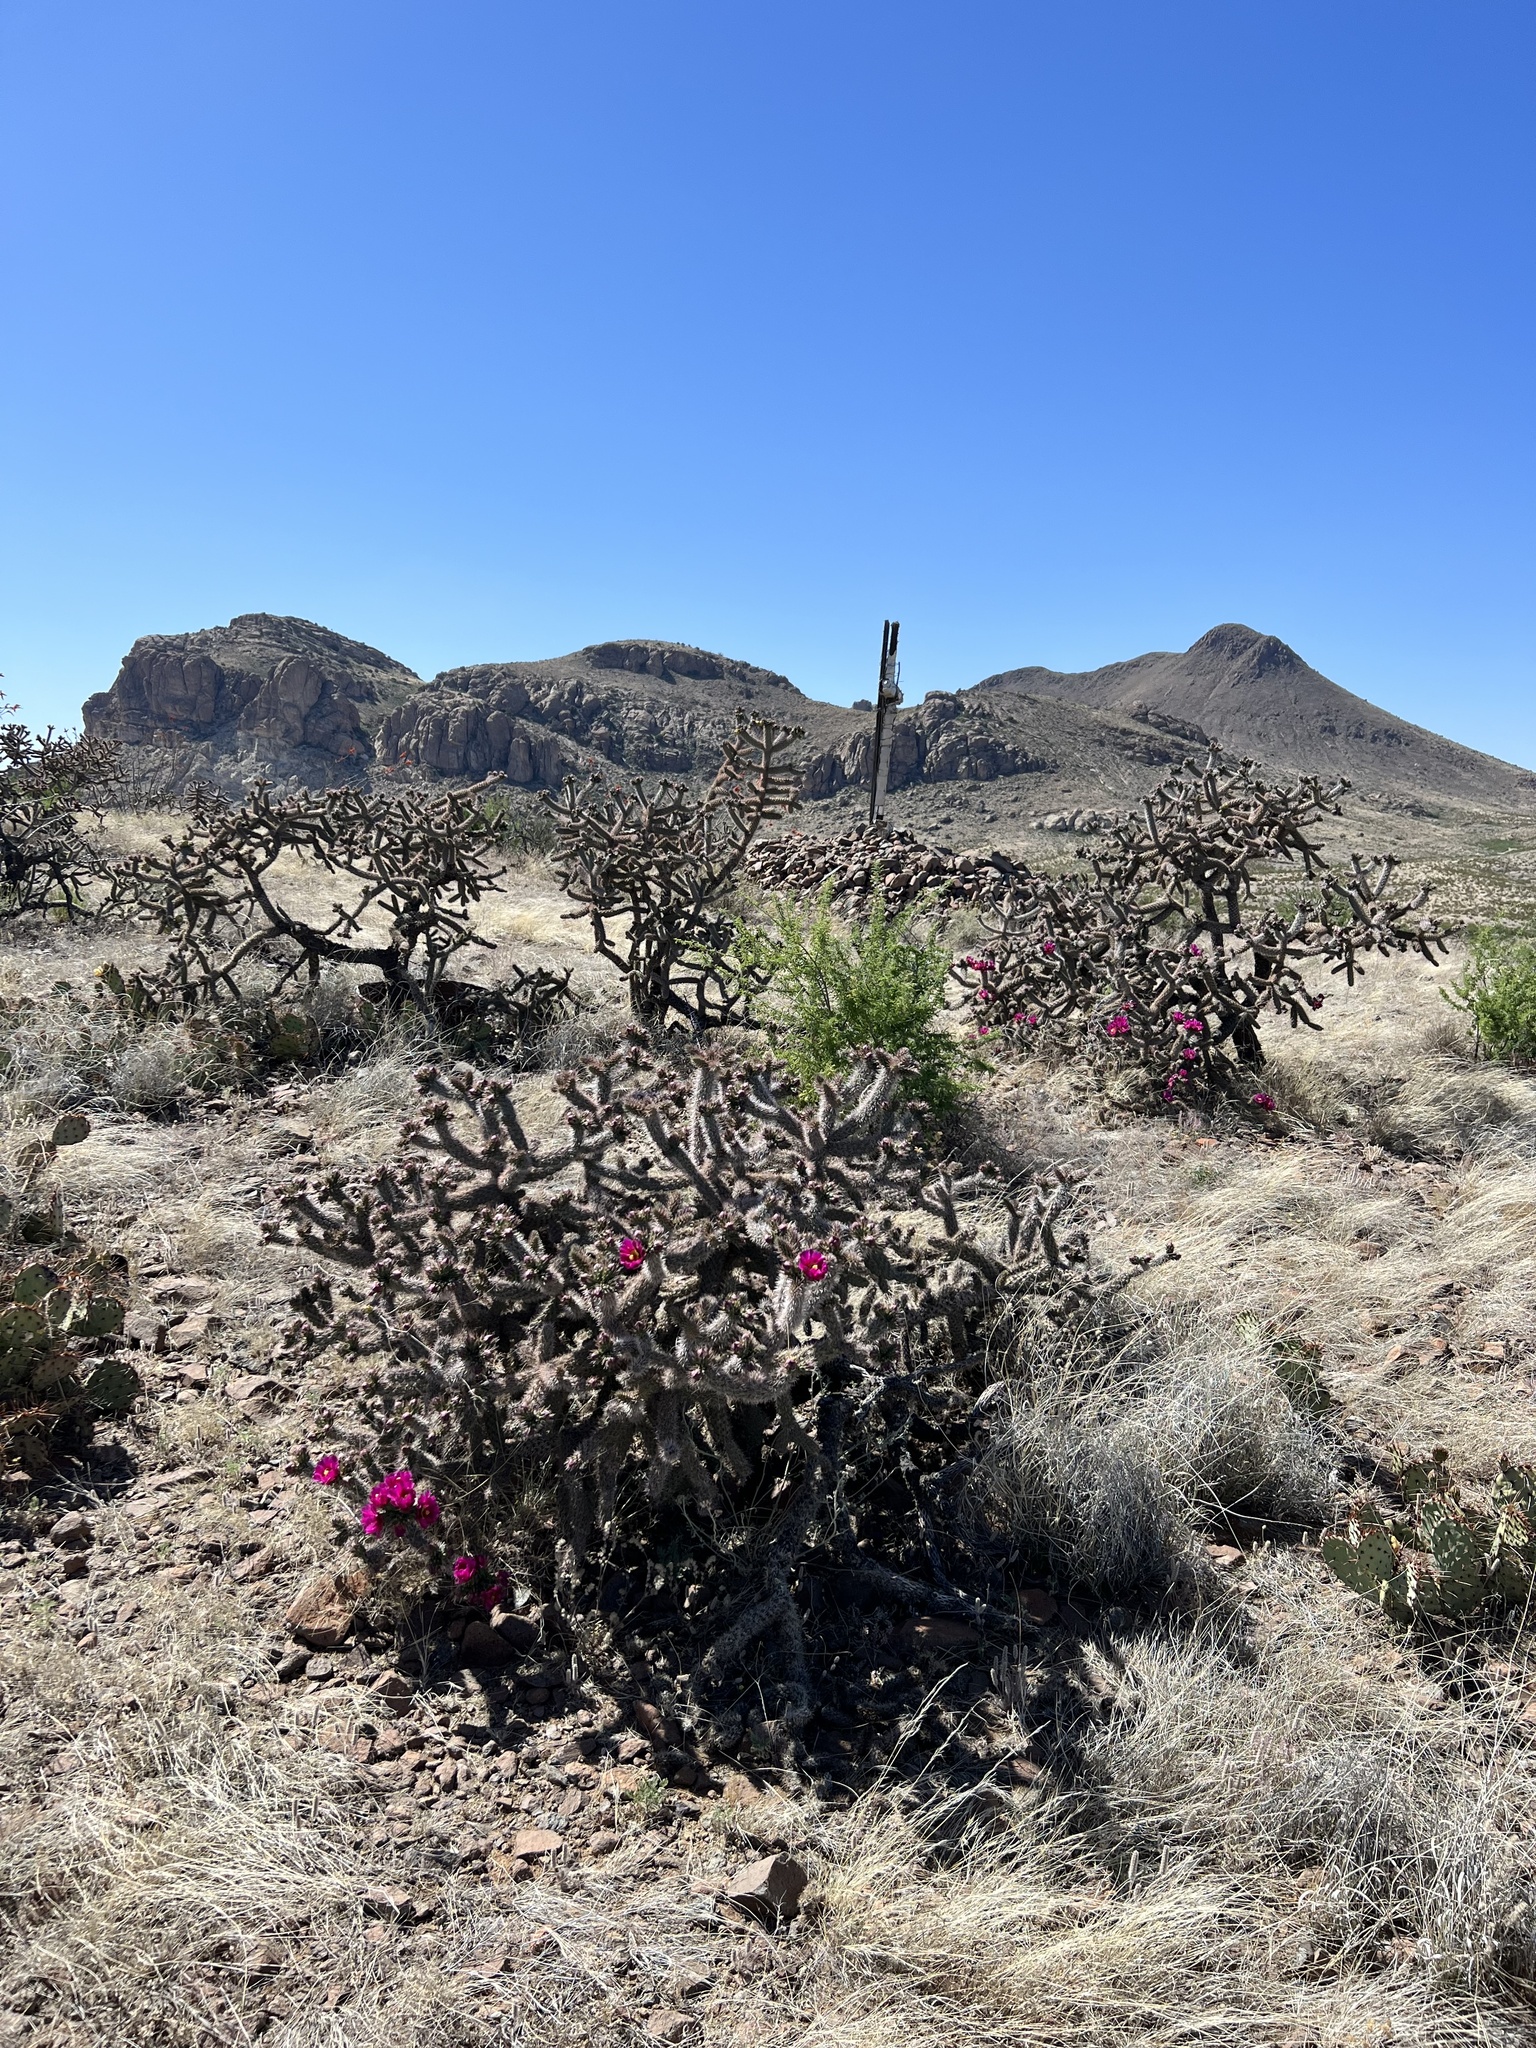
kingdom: Plantae
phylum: Tracheophyta
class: Magnoliopsida
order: Caryophyllales
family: Cactaceae
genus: Cylindropuntia
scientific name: Cylindropuntia imbricata
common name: Candelabrum cactus
